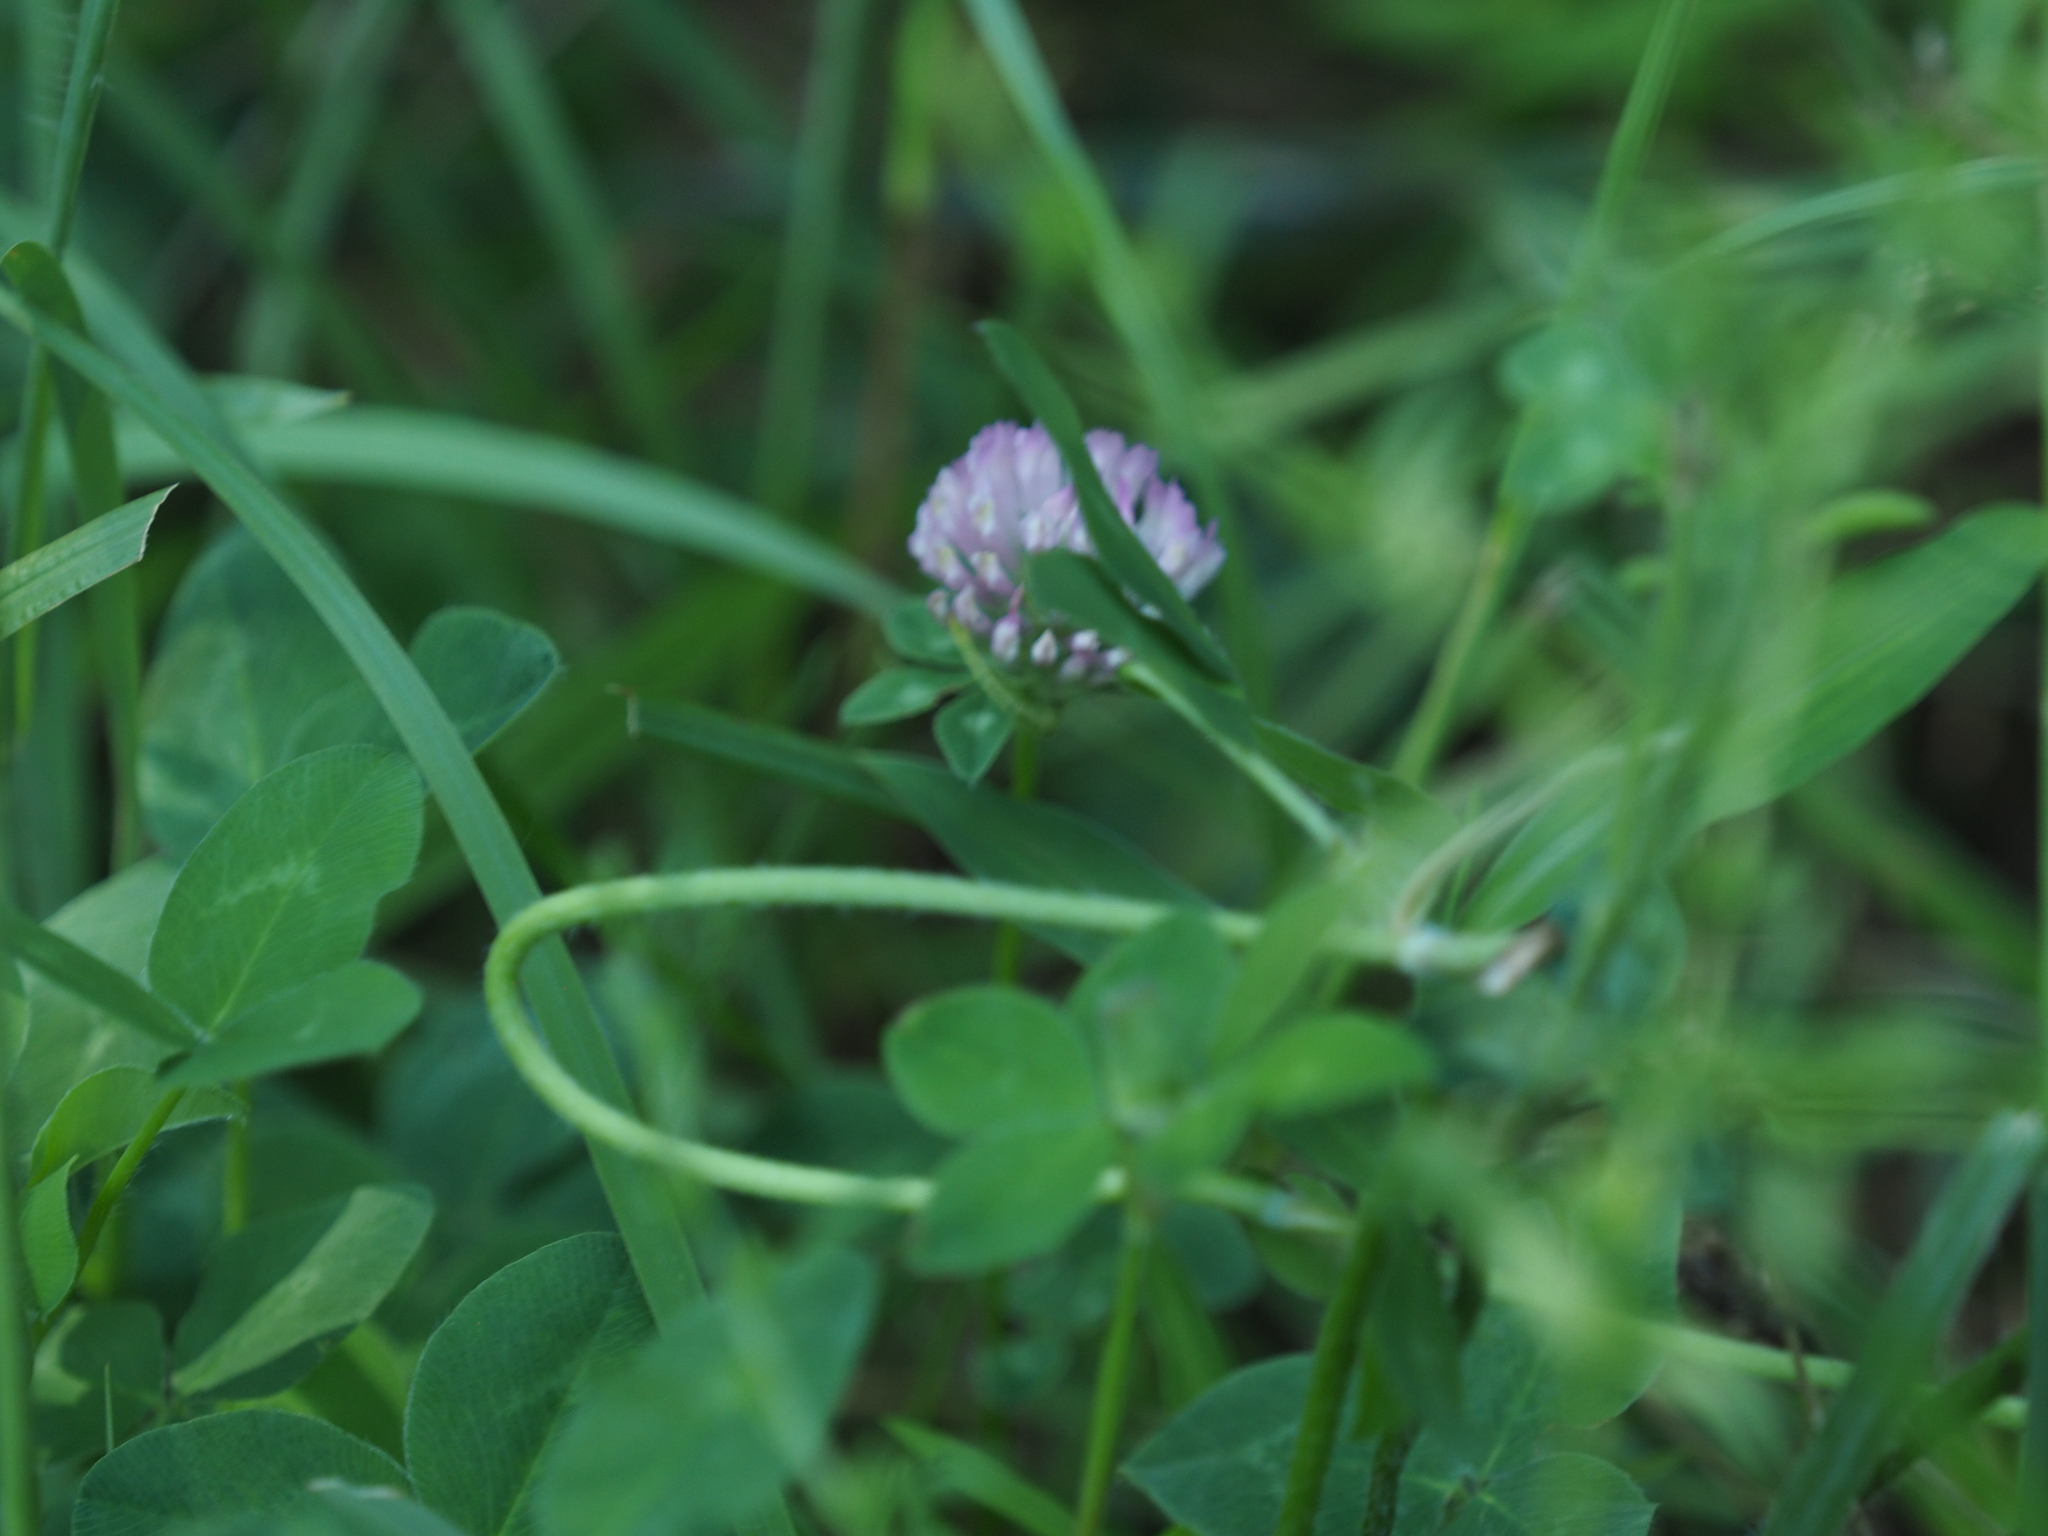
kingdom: Plantae
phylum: Tracheophyta
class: Magnoliopsida
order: Fabales
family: Fabaceae
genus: Trifolium
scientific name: Trifolium pratense
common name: Red clover
